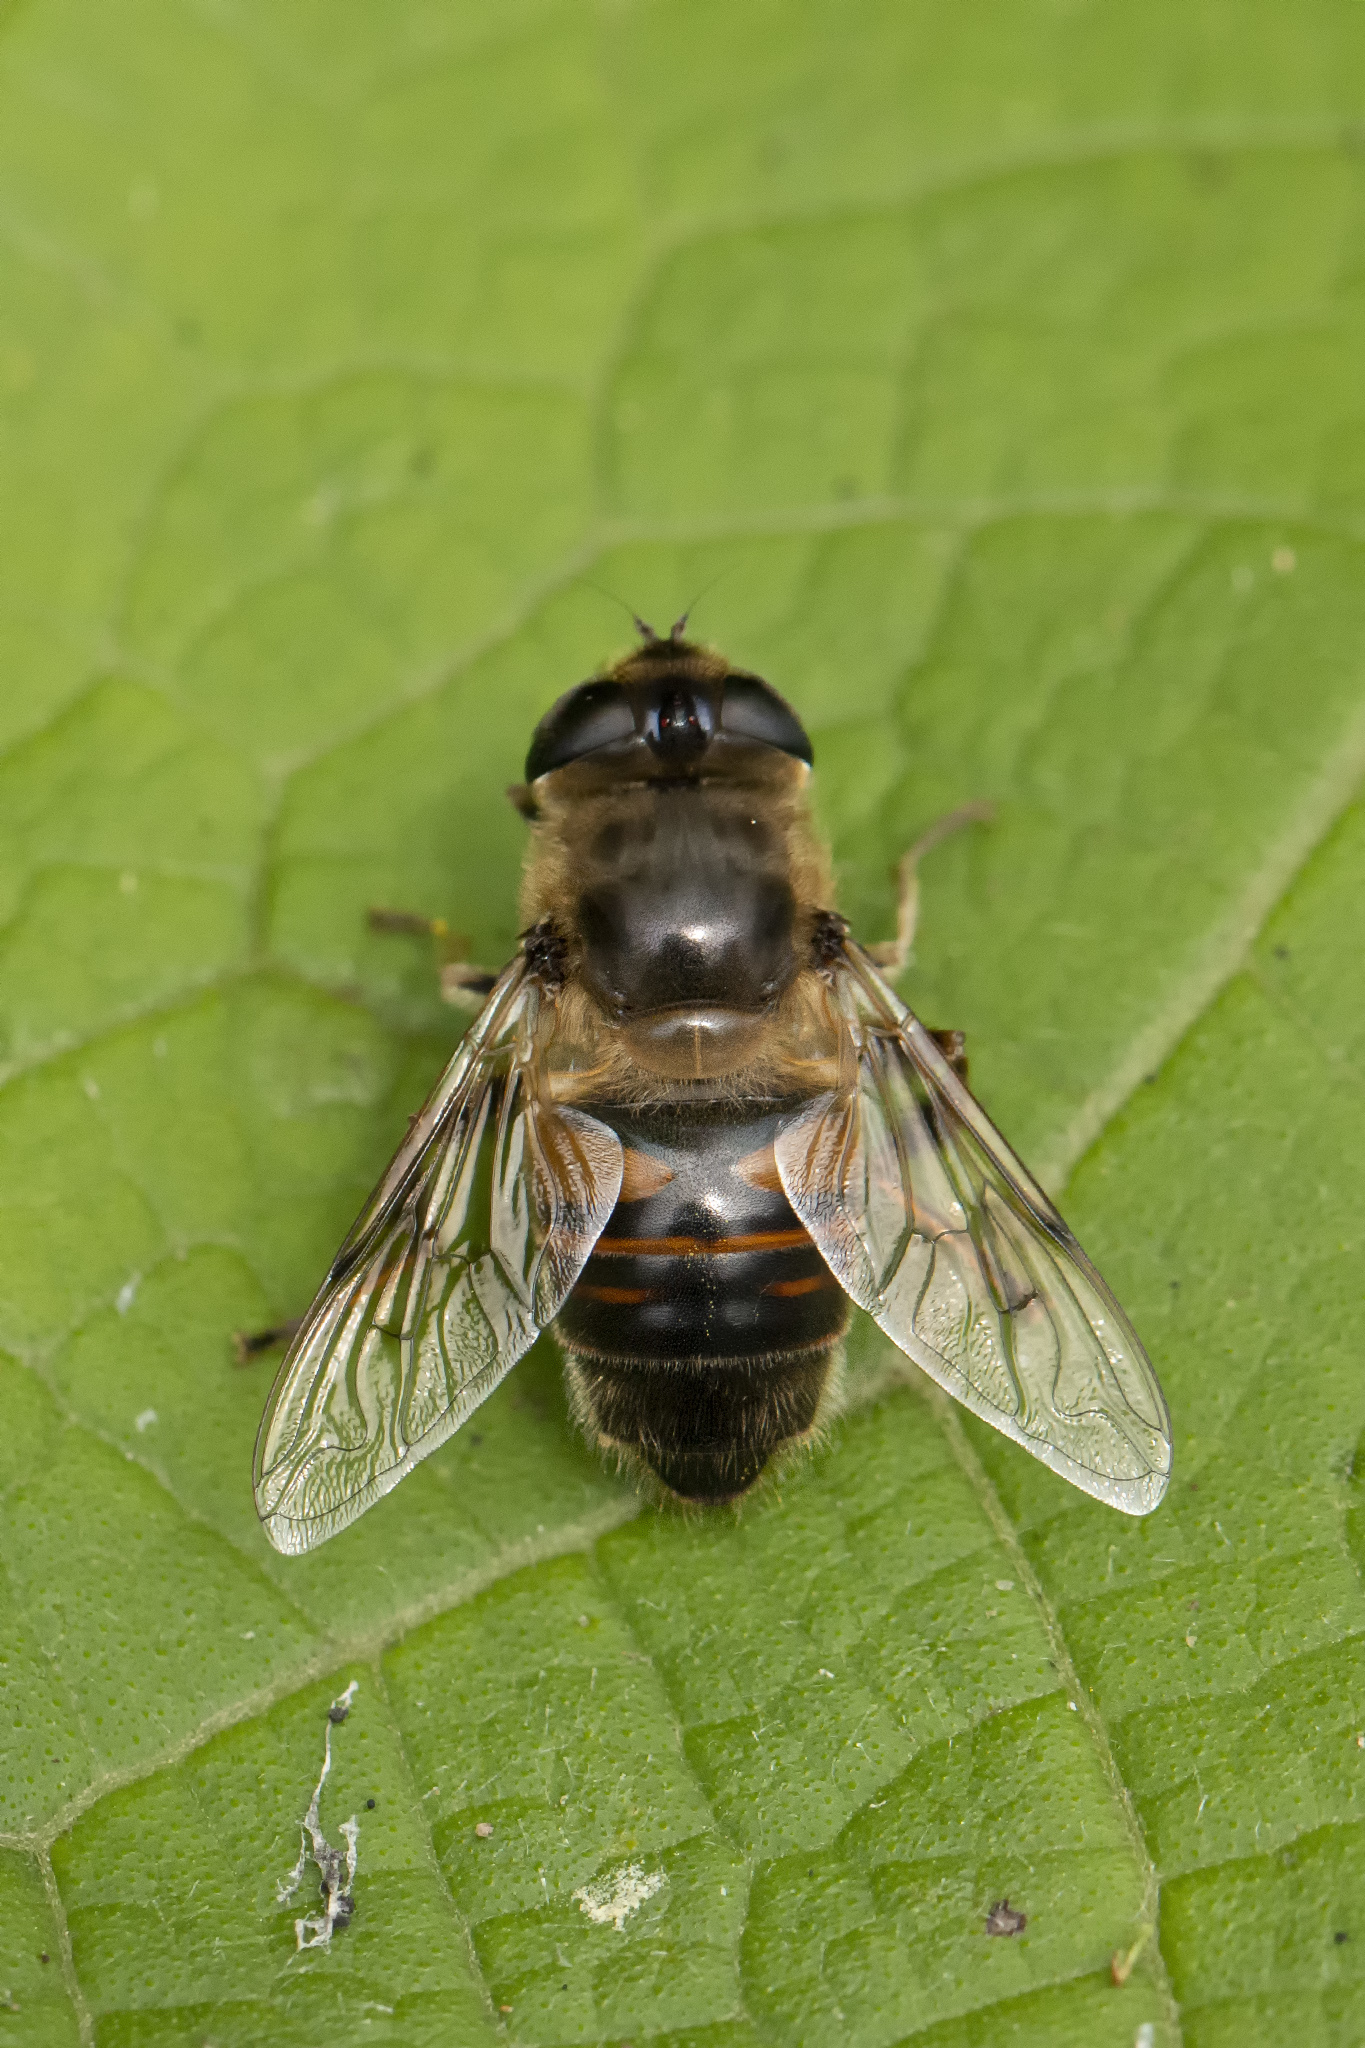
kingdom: Animalia
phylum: Arthropoda
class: Insecta
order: Diptera
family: Syrphidae
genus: Eristalis
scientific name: Eristalis tenax
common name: Drone fly
